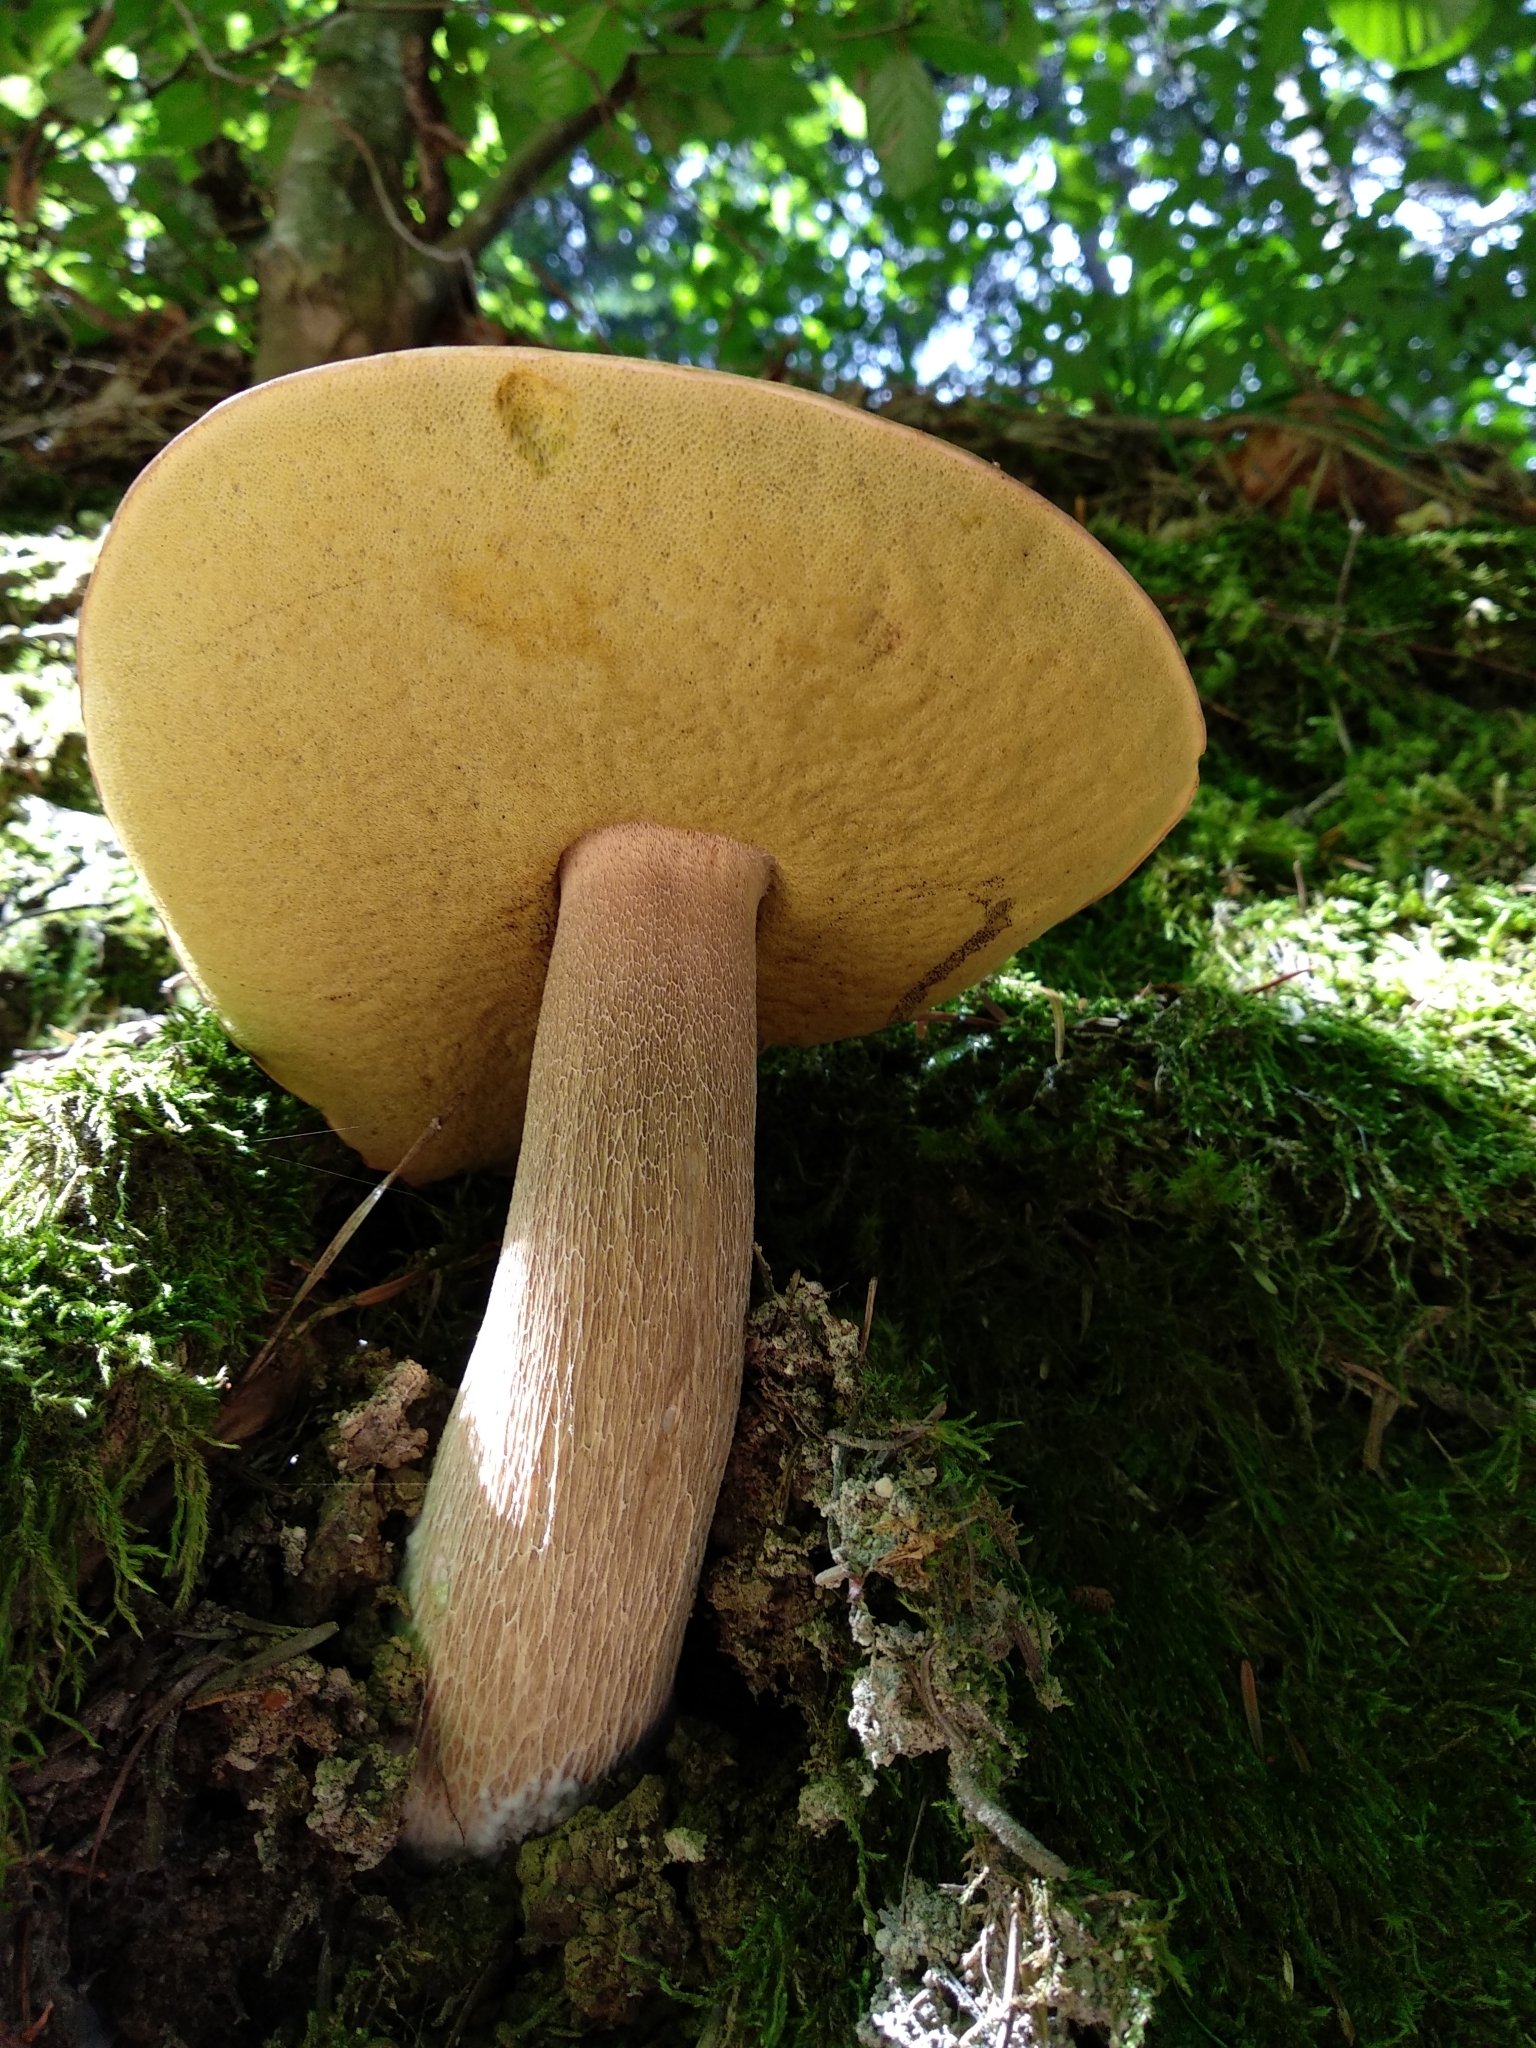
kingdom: Fungi
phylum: Basidiomycota
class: Agaricomycetes
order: Boletales
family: Boletaceae
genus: Boletus
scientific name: Boletus reticulatus
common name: Summer bolete
